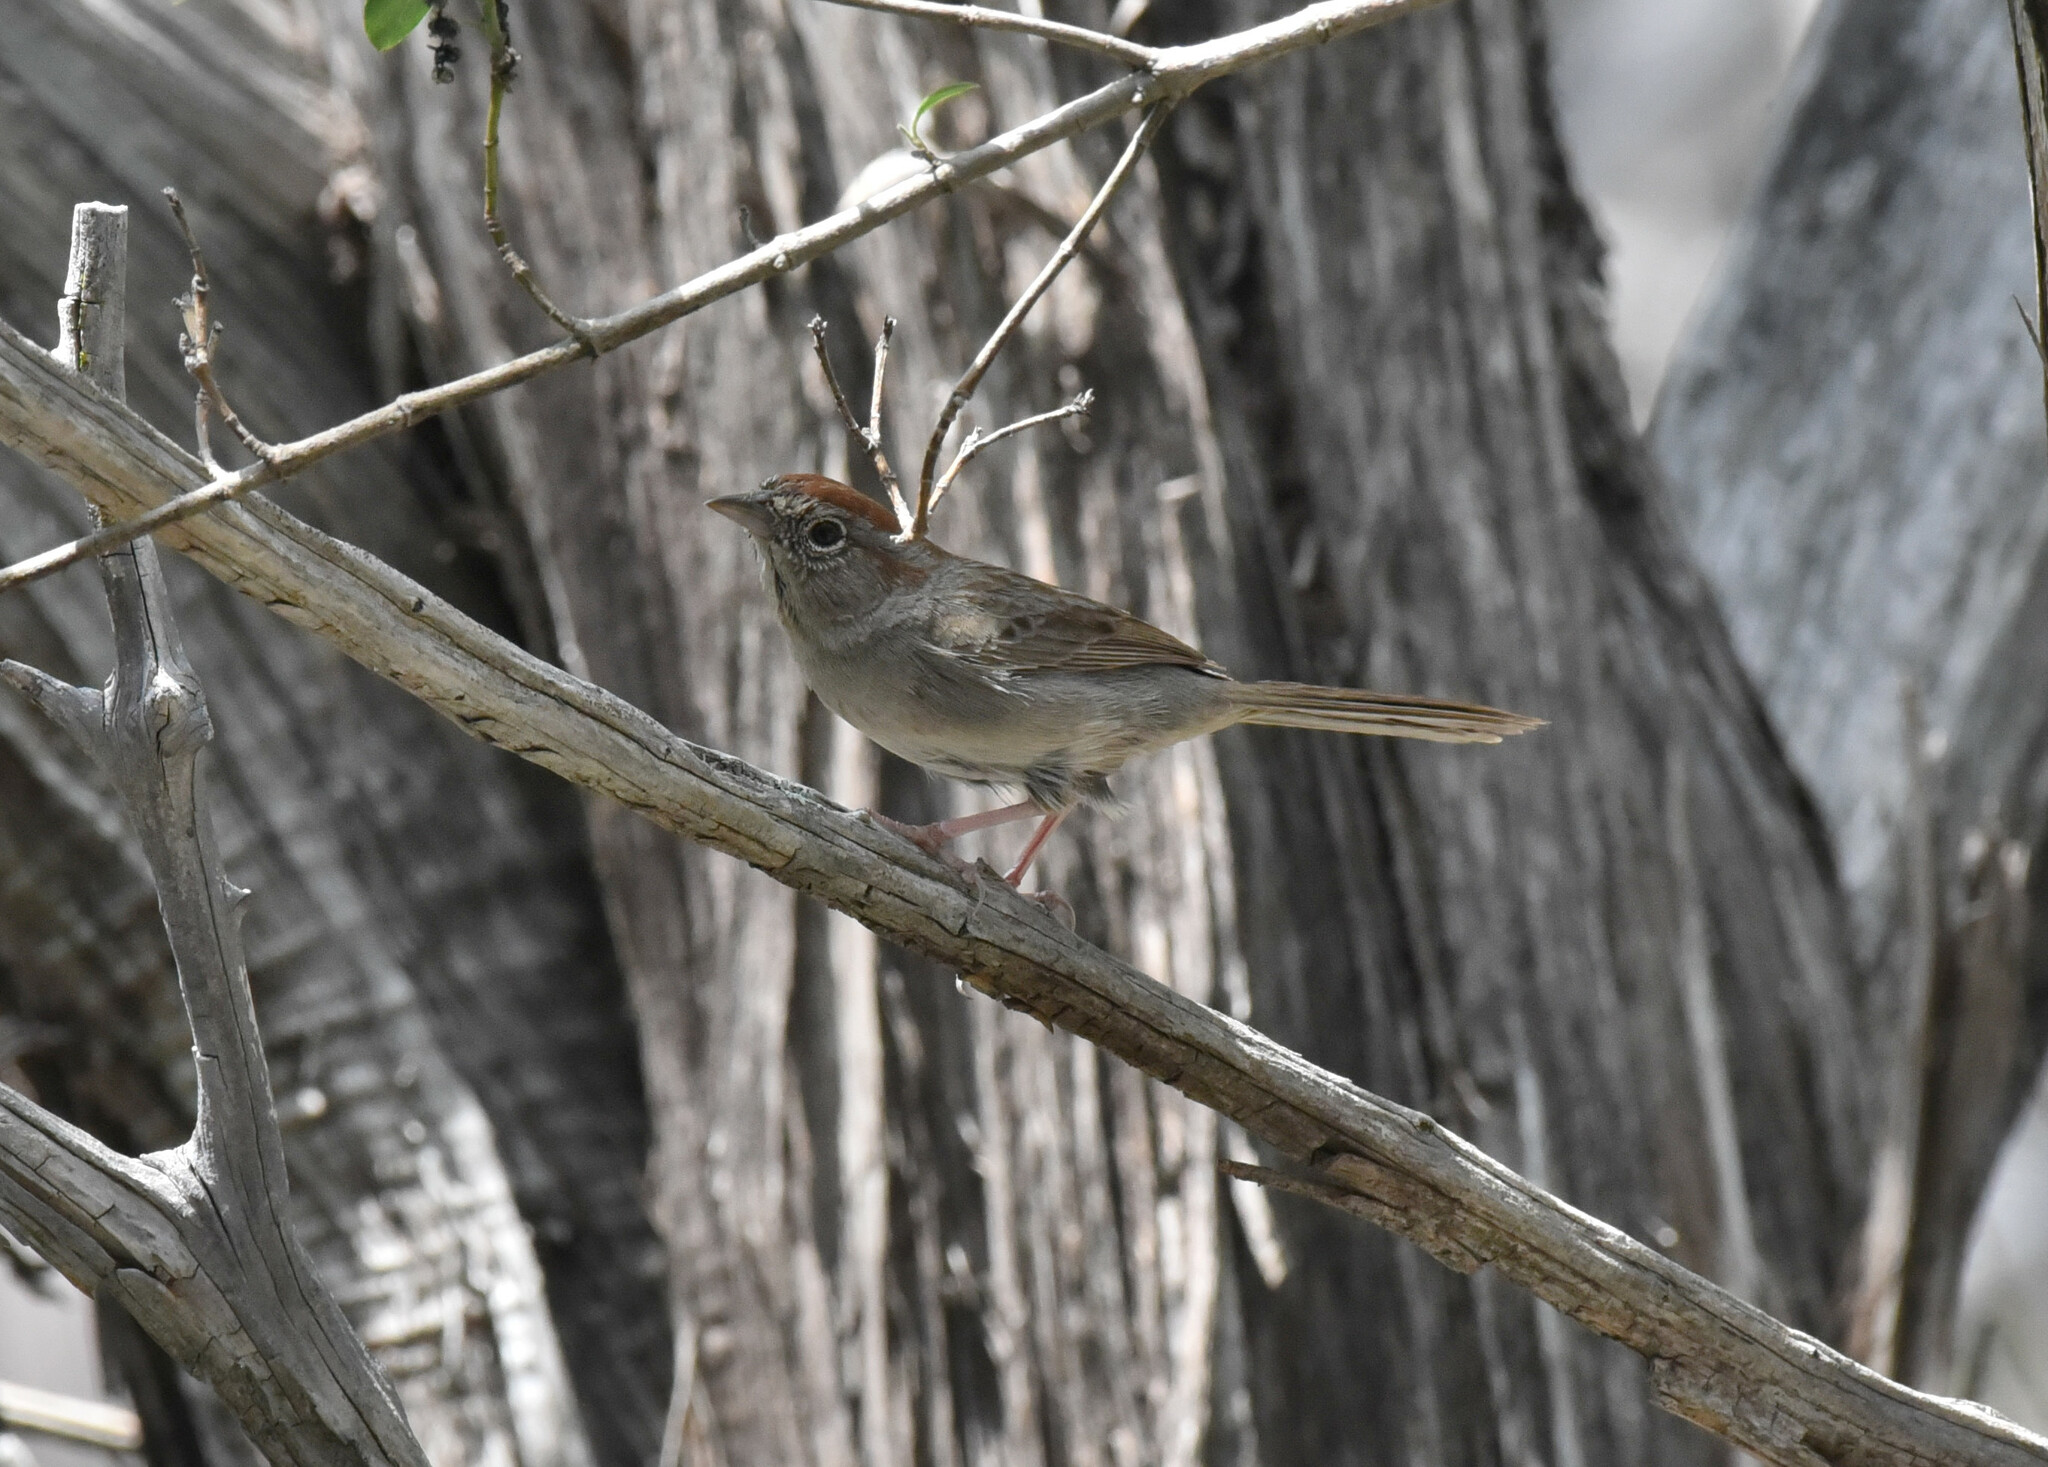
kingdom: Animalia
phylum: Chordata
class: Aves
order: Passeriformes
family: Passerellidae
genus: Aimophila
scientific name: Aimophila ruficeps
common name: Rufous-crowned sparrow
